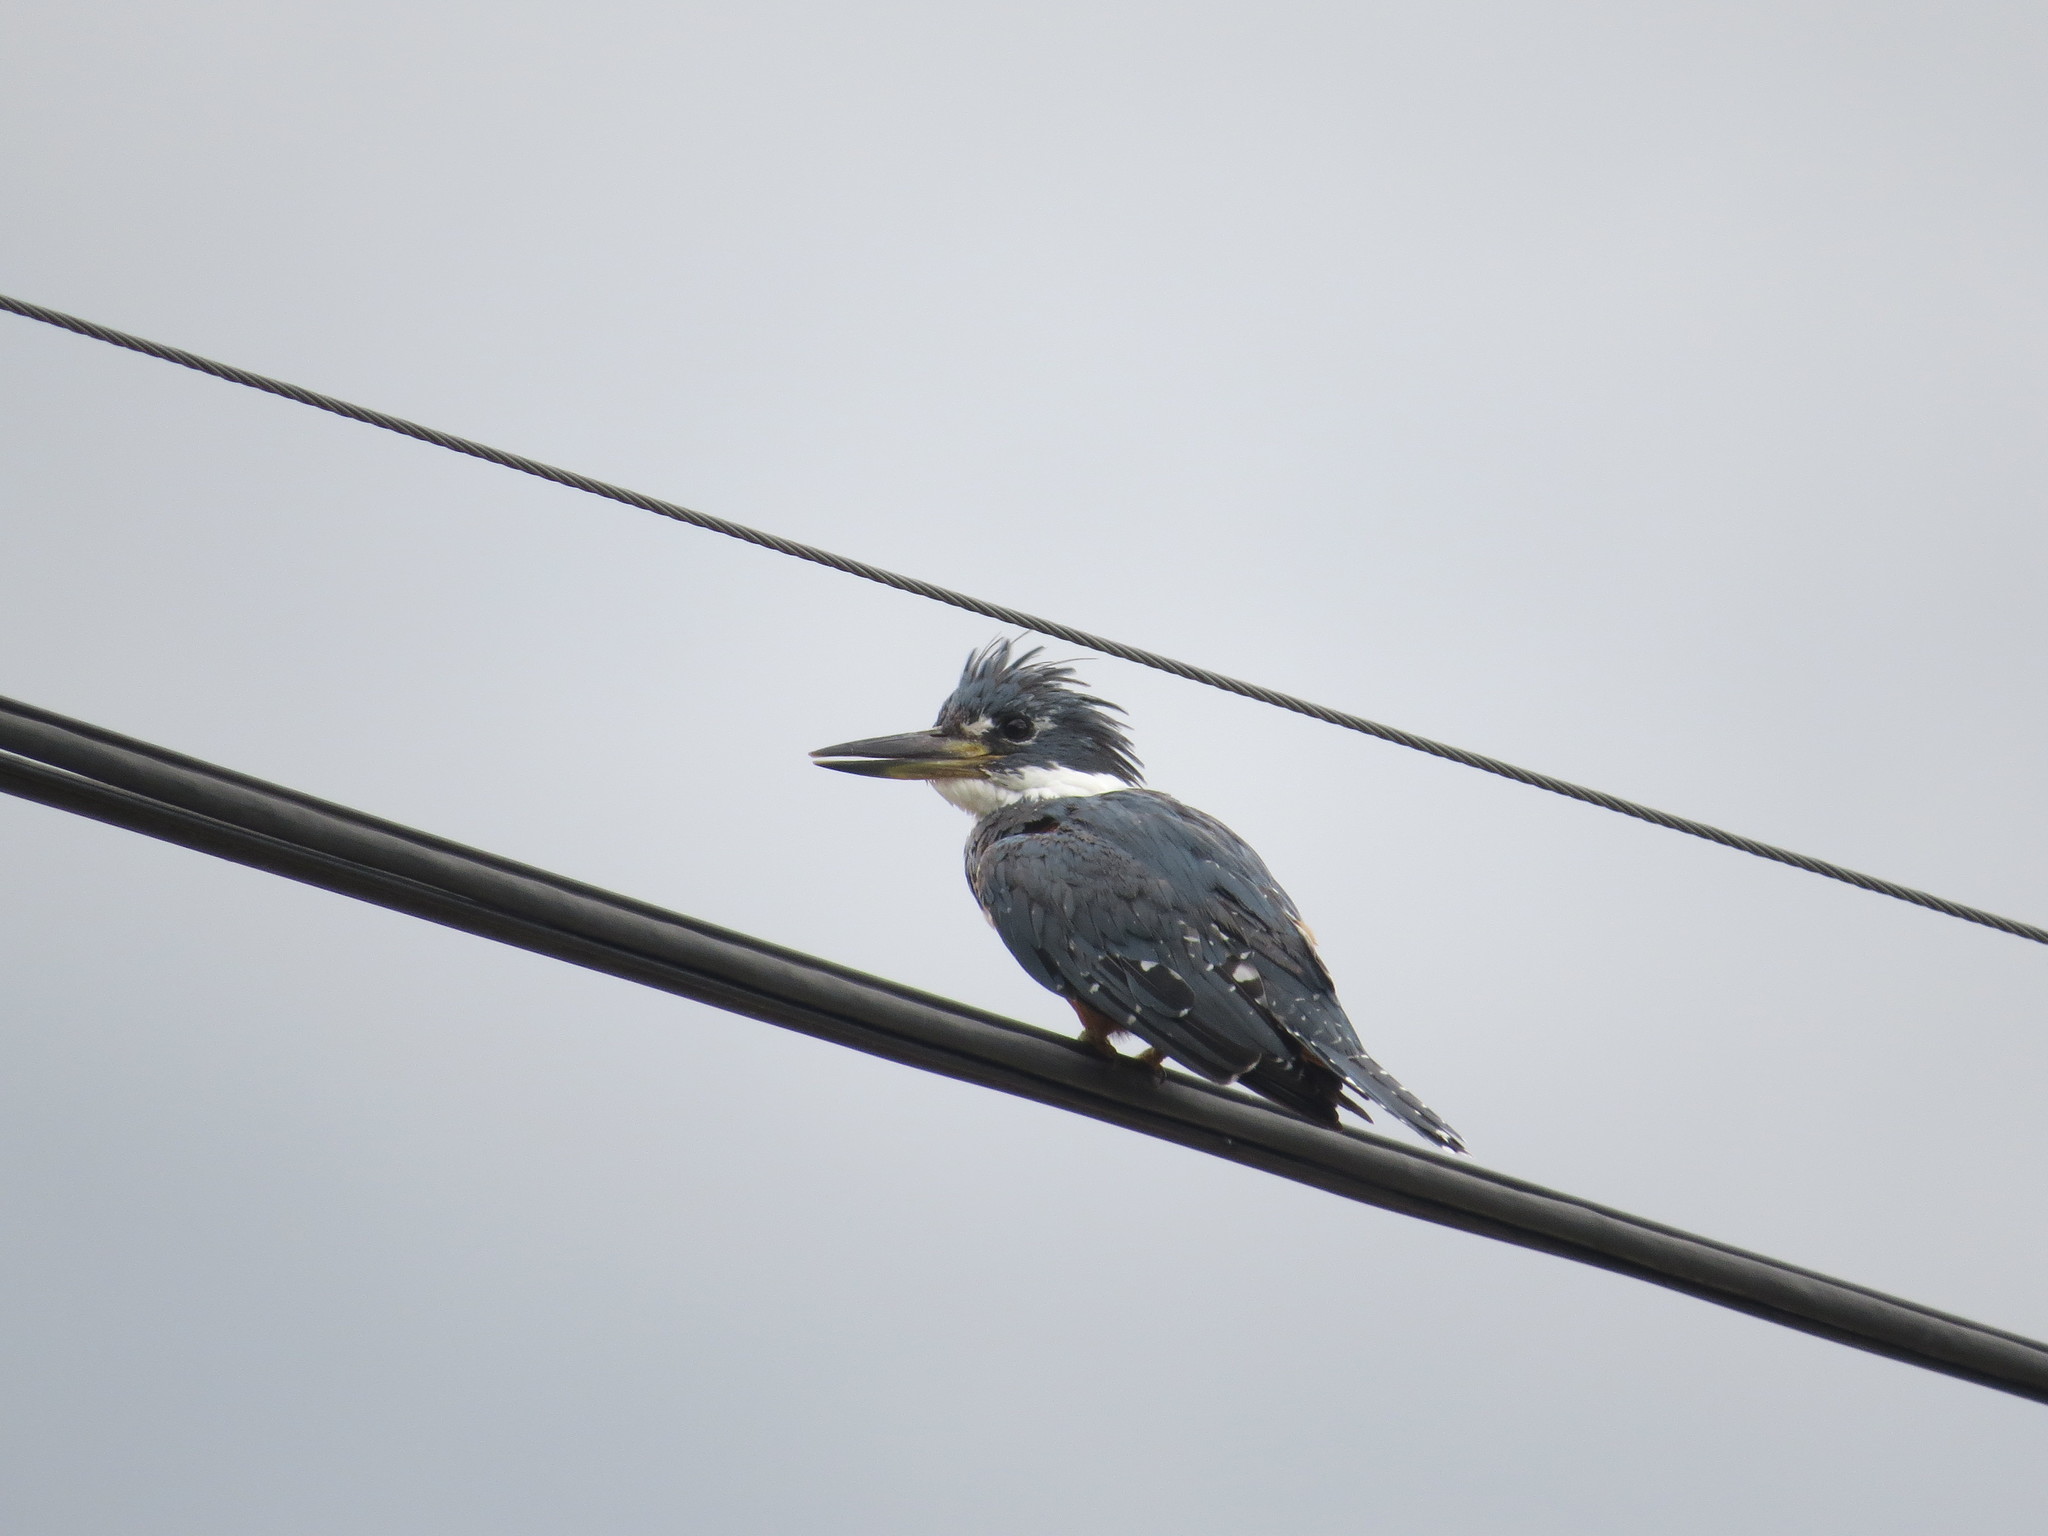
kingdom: Animalia
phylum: Chordata
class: Aves
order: Coraciiformes
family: Alcedinidae
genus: Megaceryle
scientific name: Megaceryle torquata
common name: Ringed kingfisher
